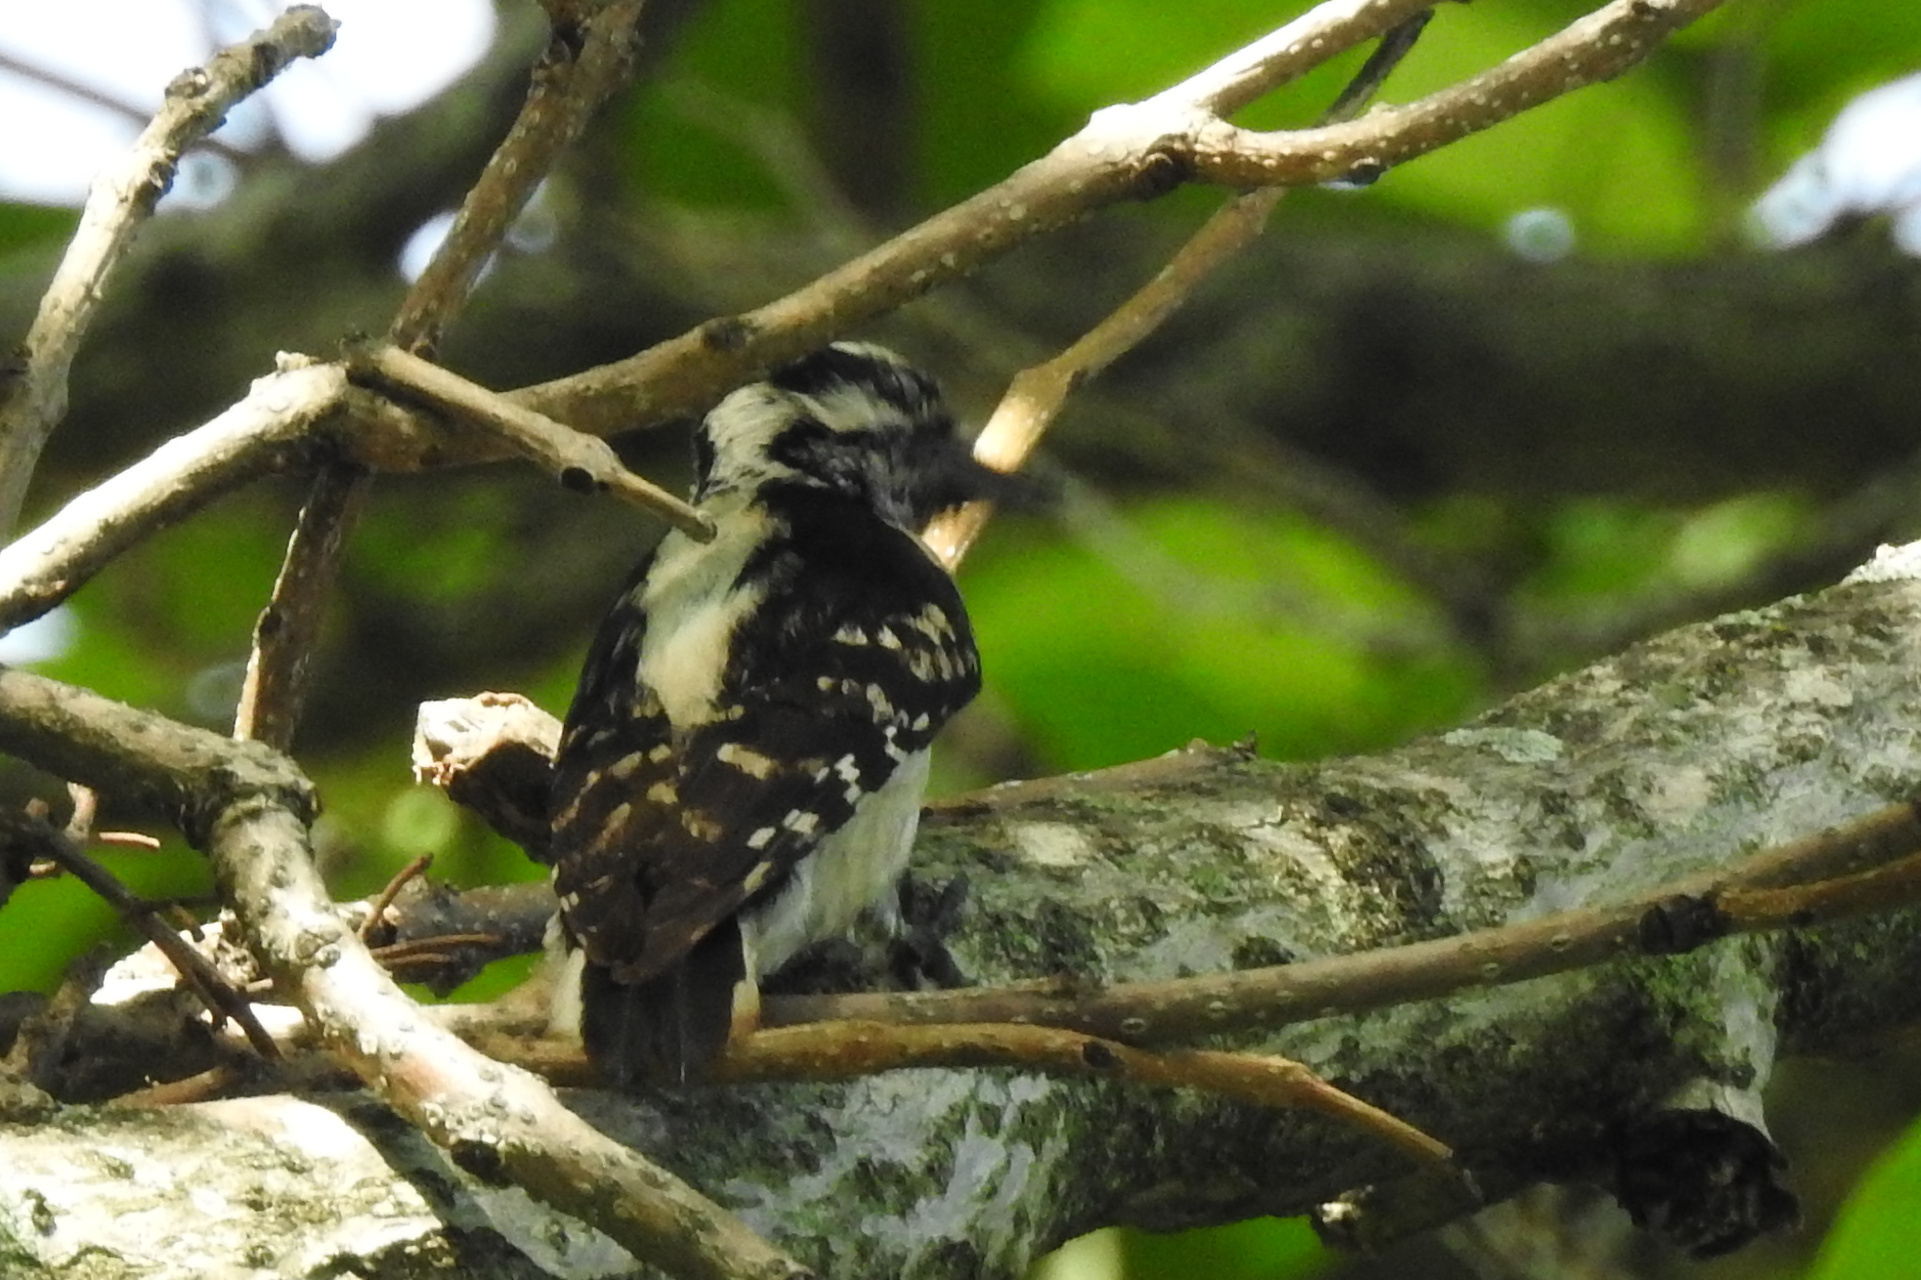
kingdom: Animalia
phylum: Chordata
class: Aves
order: Piciformes
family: Picidae
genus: Leuconotopicus
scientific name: Leuconotopicus villosus
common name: Hairy woodpecker
